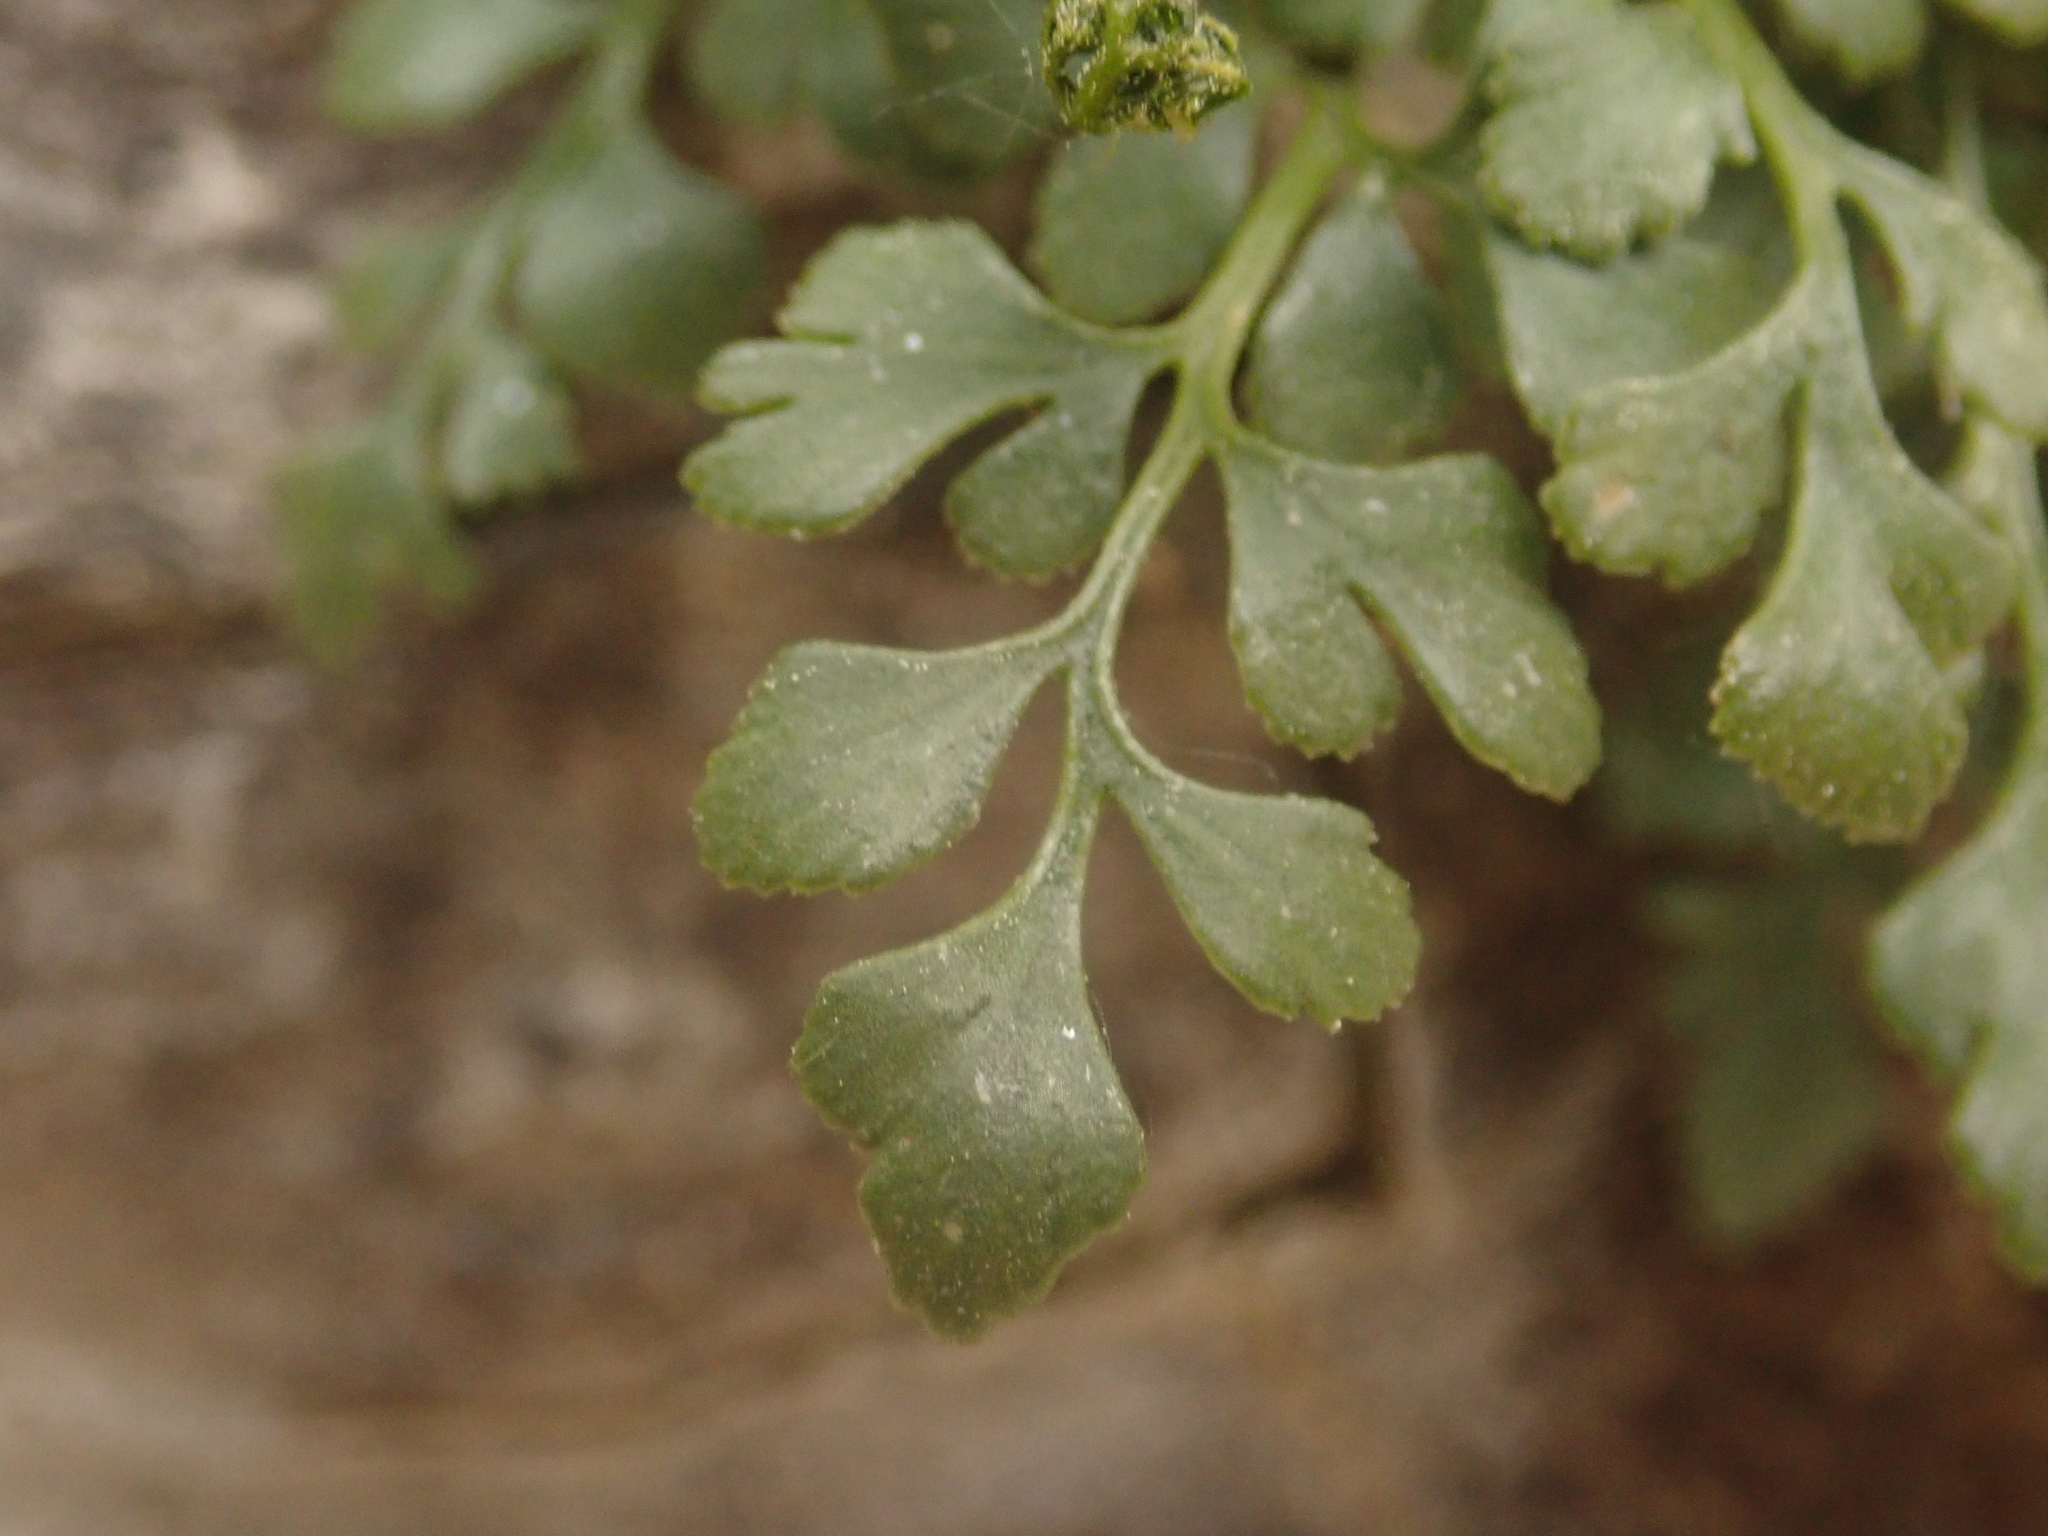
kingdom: Plantae
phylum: Tracheophyta
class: Polypodiopsida
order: Polypodiales
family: Aspleniaceae
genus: Asplenium
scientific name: Asplenium ruta-muraria
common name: Wall-rue
